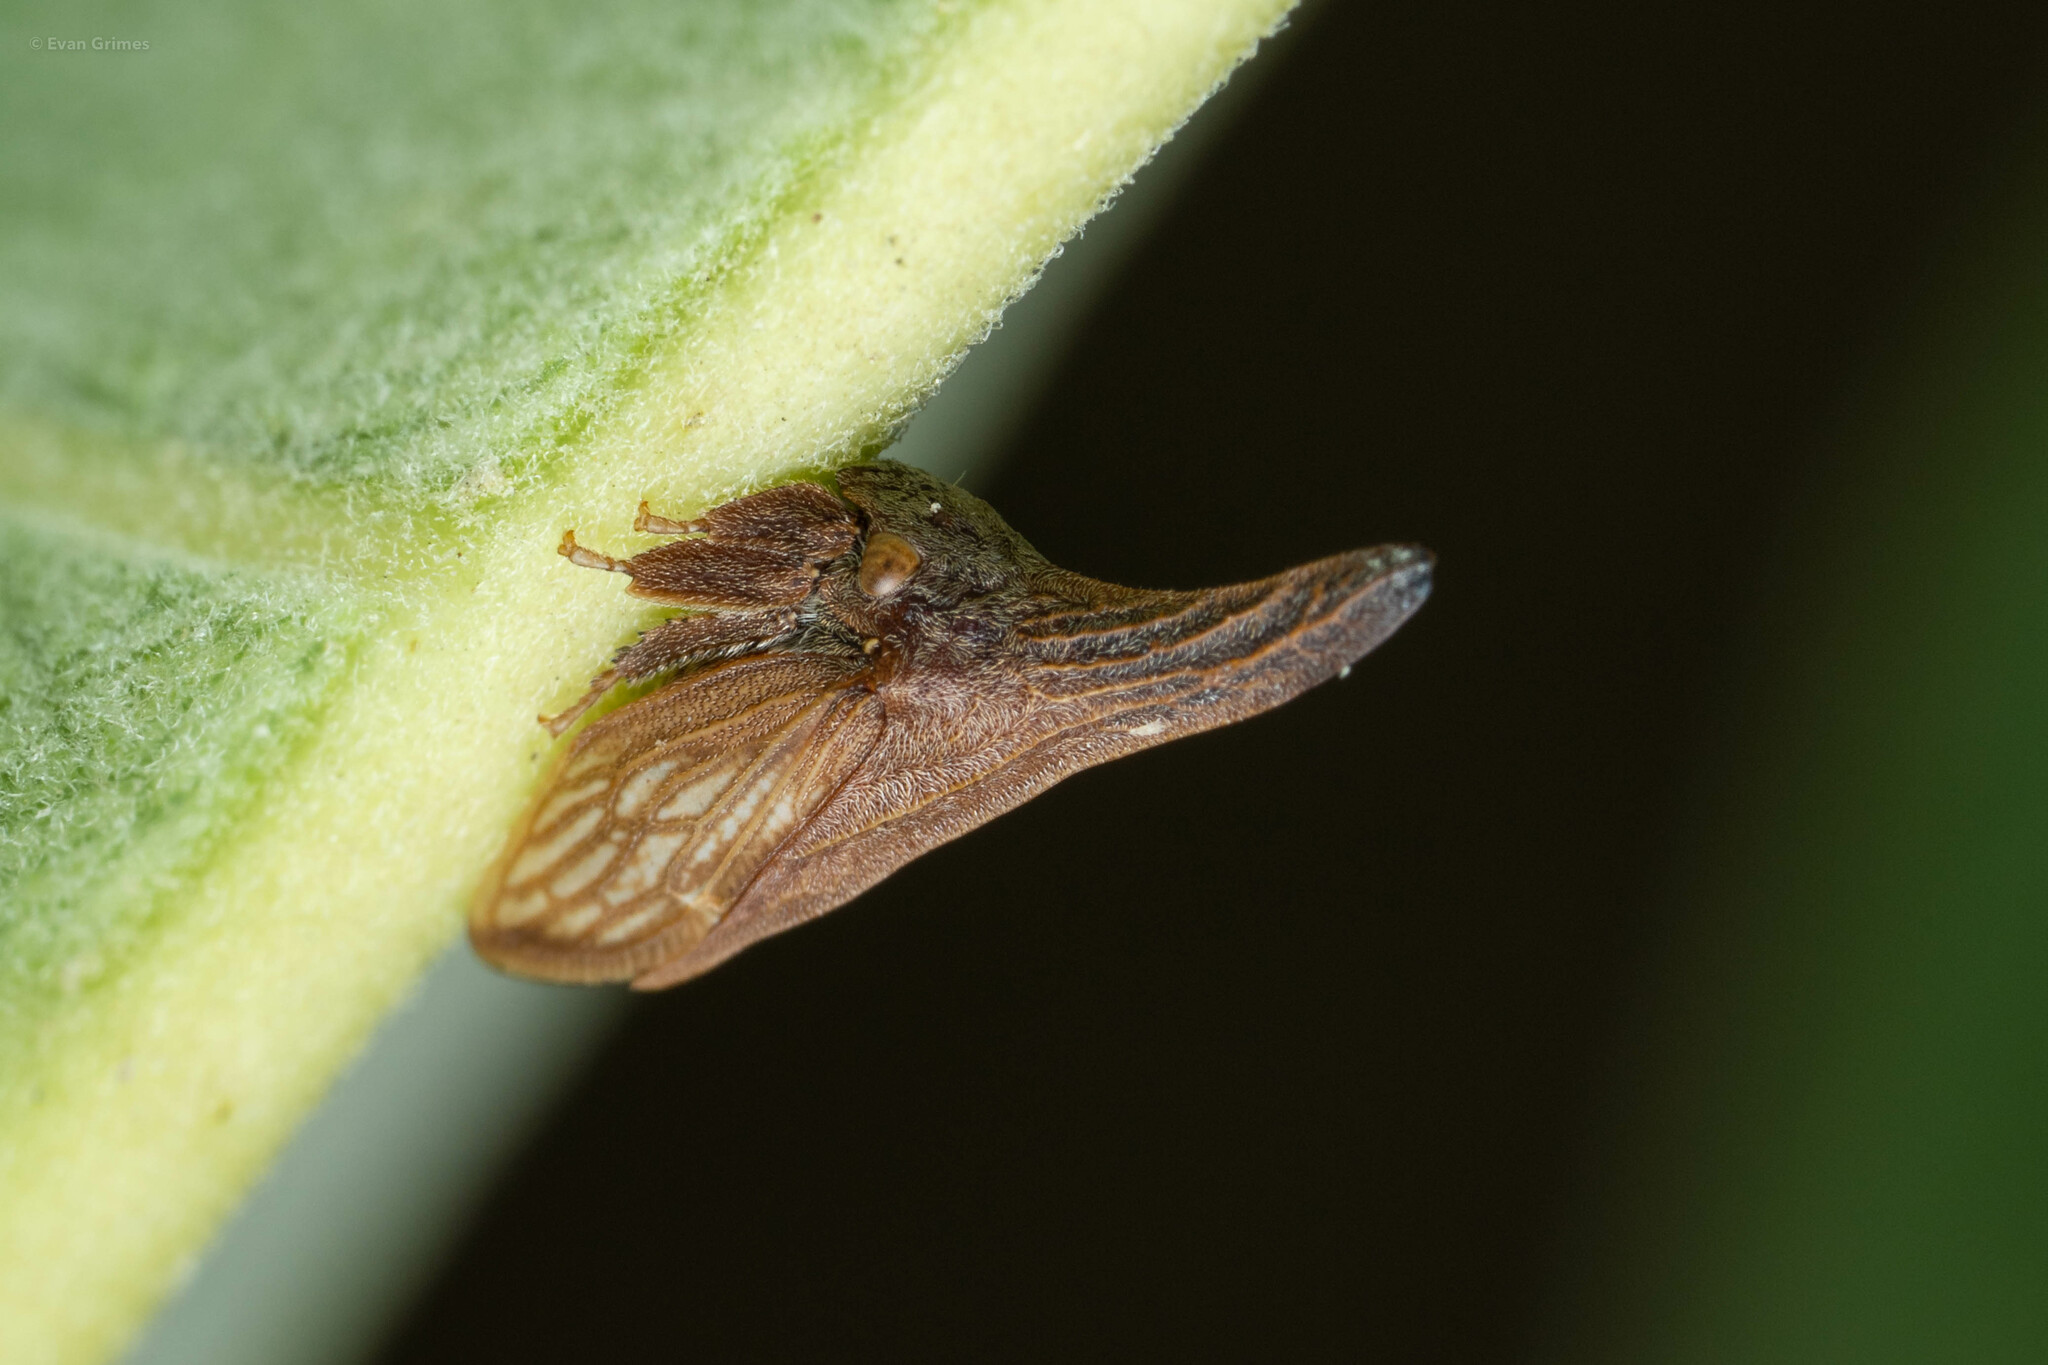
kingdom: Animalia
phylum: Arthropoda
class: Insecta
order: Hemiptera
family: Membracidae
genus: Enchenopa
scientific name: Enchenopa latipes
